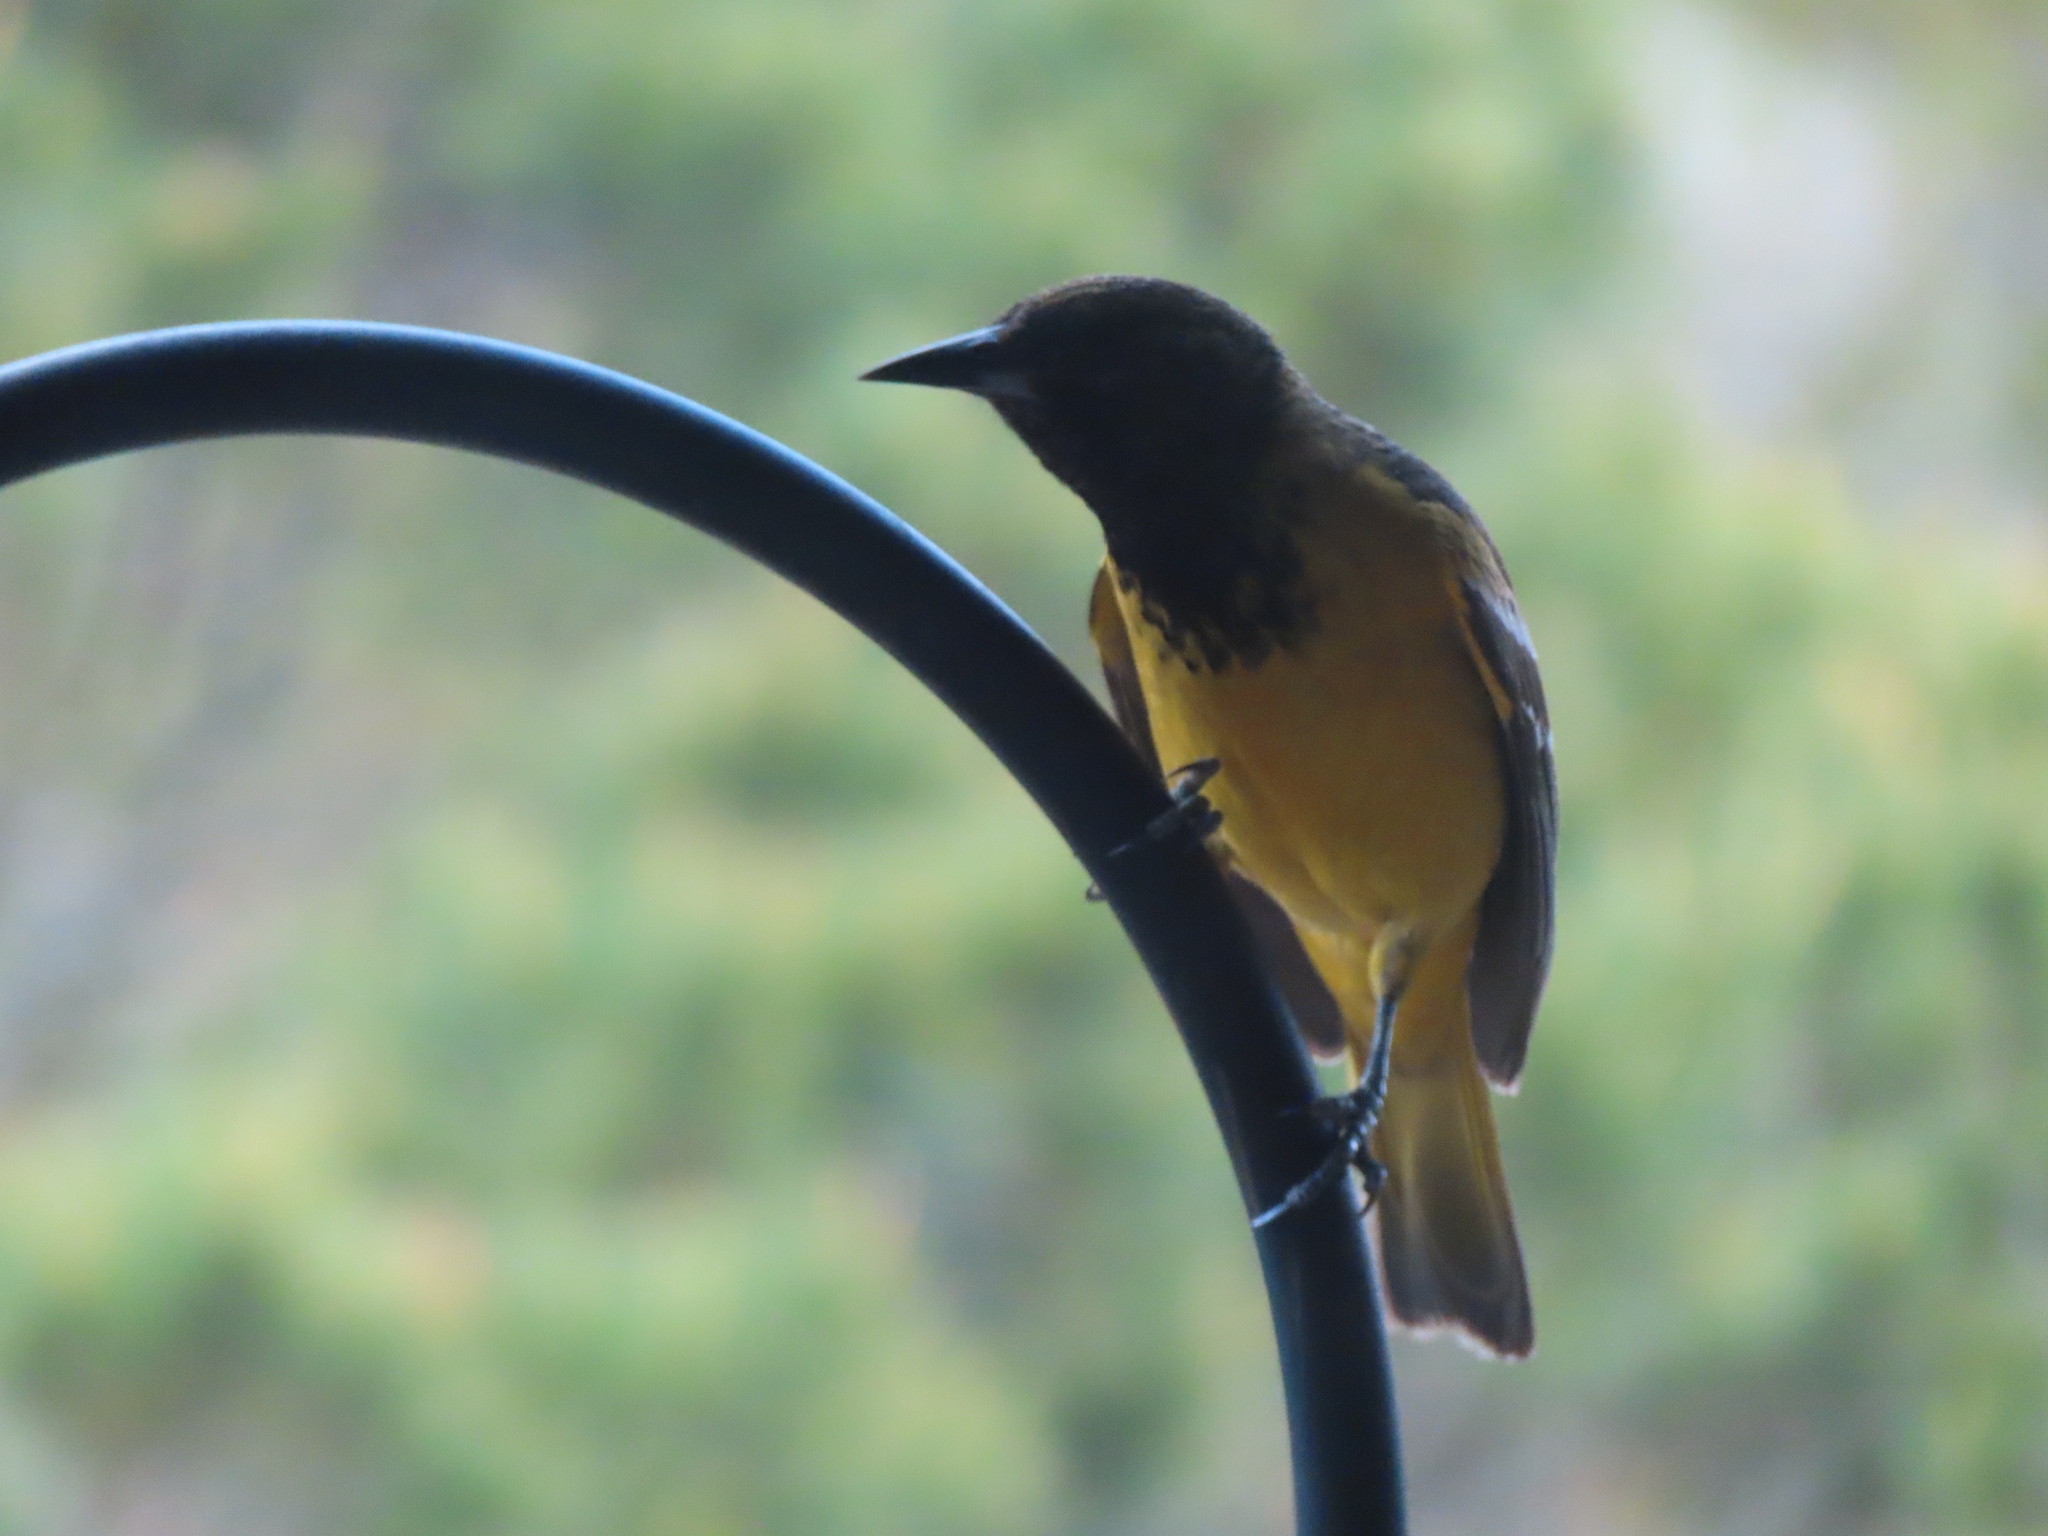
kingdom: Animalia
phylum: Chordata
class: Aves
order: Passeriformes
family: Icteridae
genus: Icterus
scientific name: Icterus parisorum
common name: Scott's oriole
